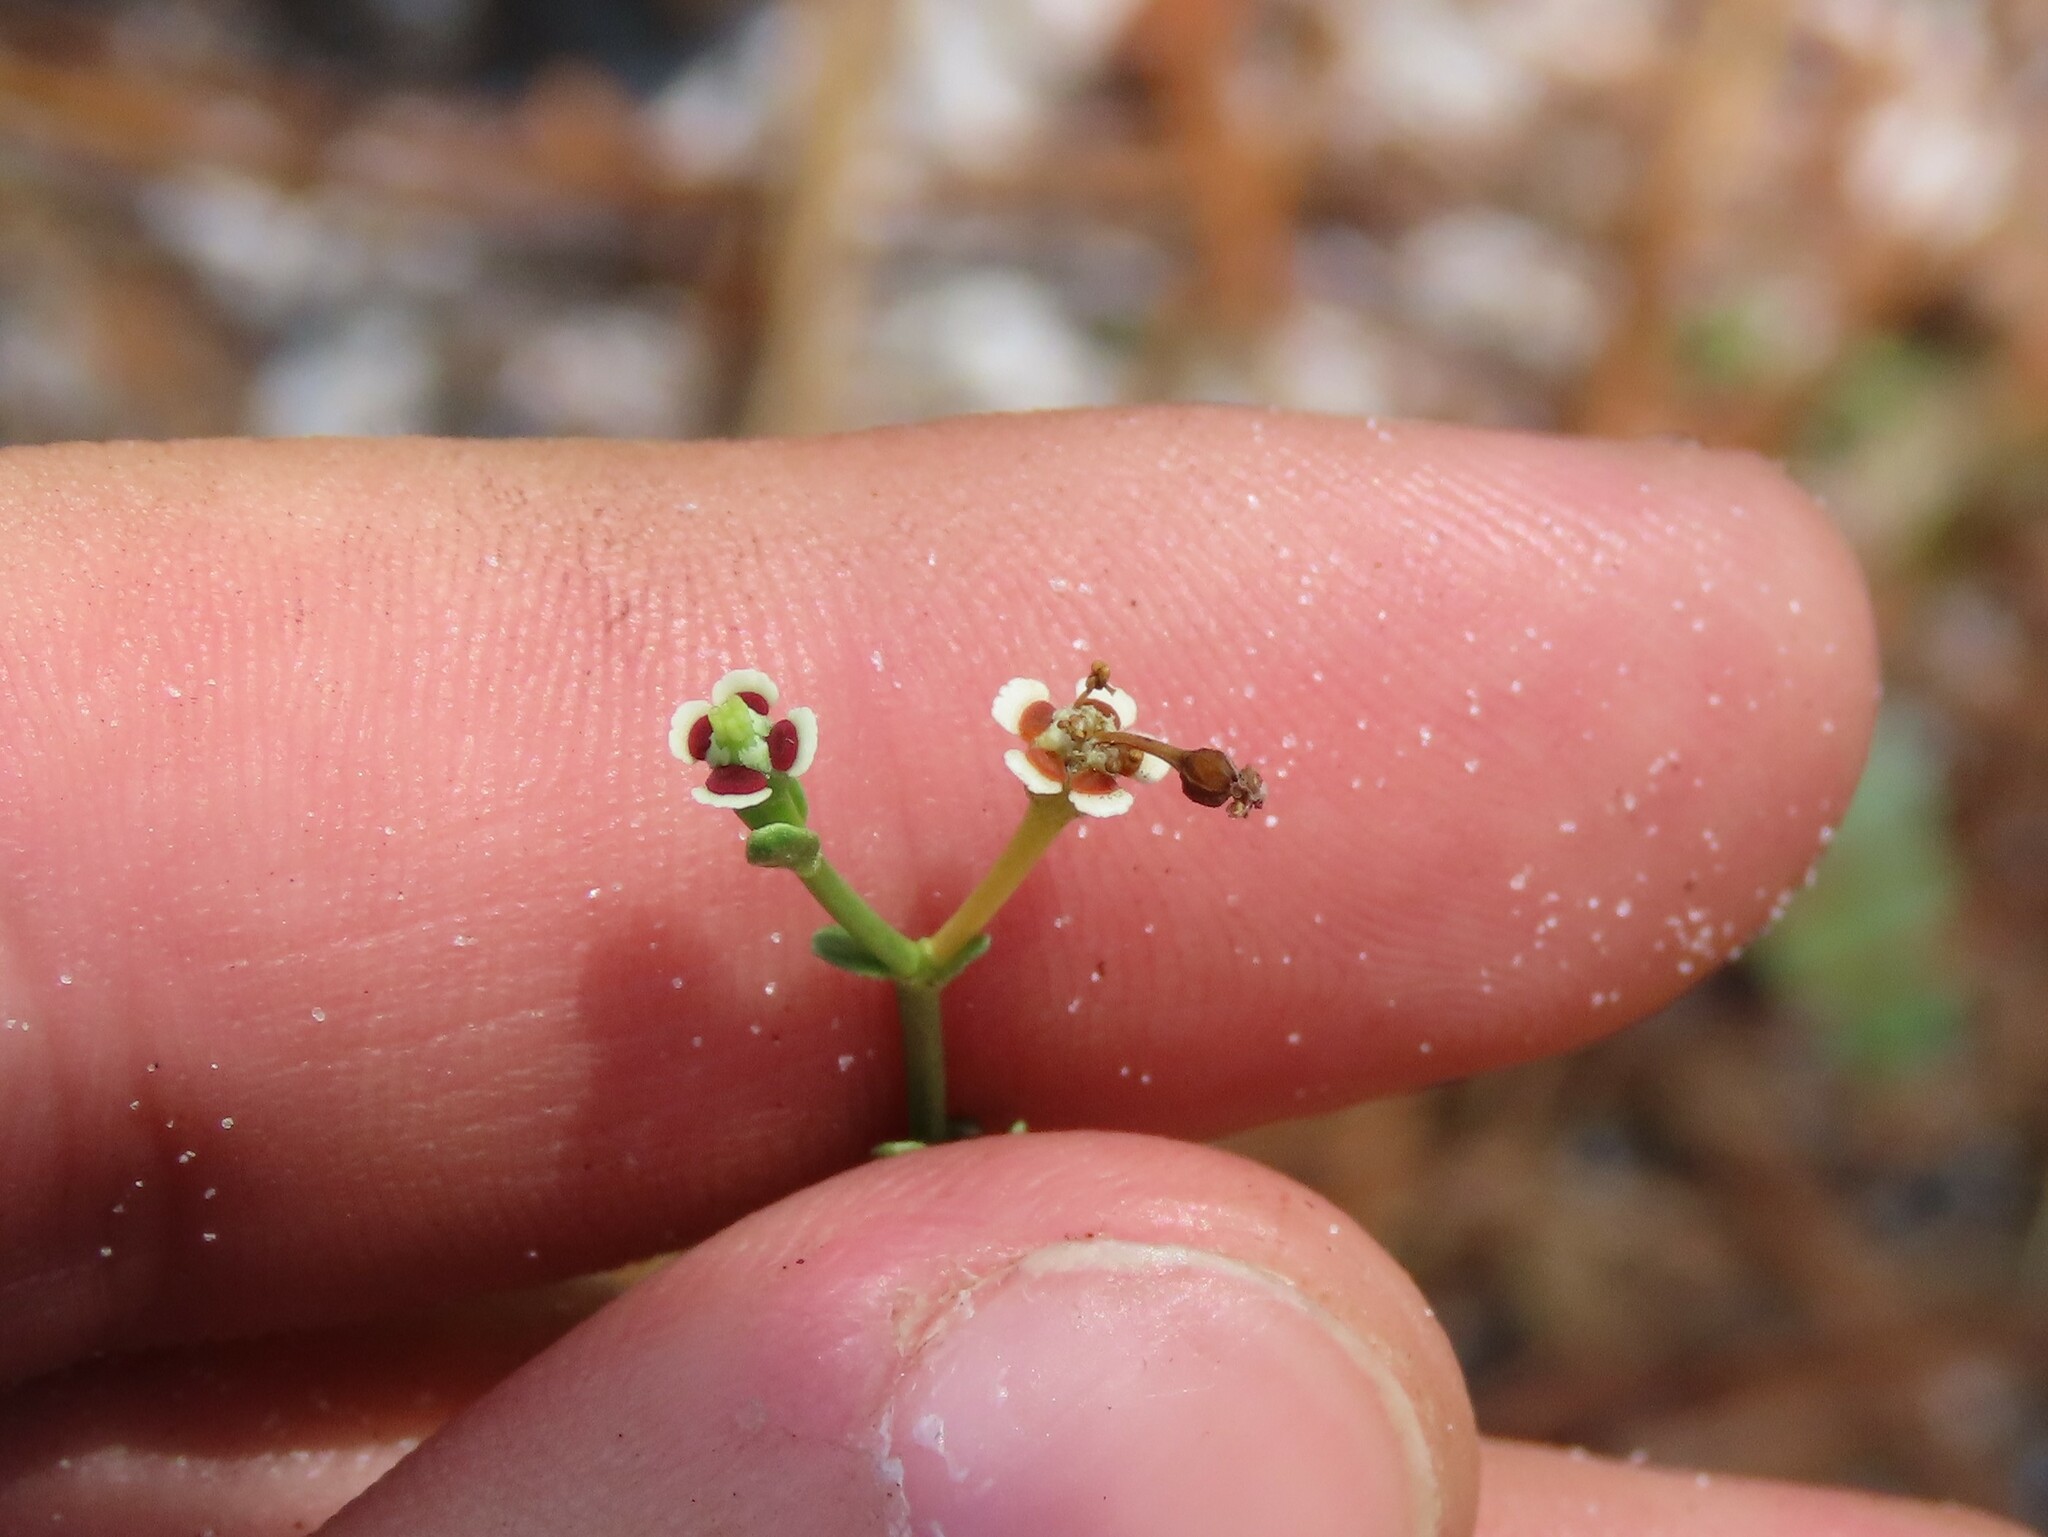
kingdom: Plantae
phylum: Tracheophyta
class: Magnoliopsida
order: Malpighiales
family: Euphorbiaceae
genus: Euphorbia
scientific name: Euphorbia polyphylla
